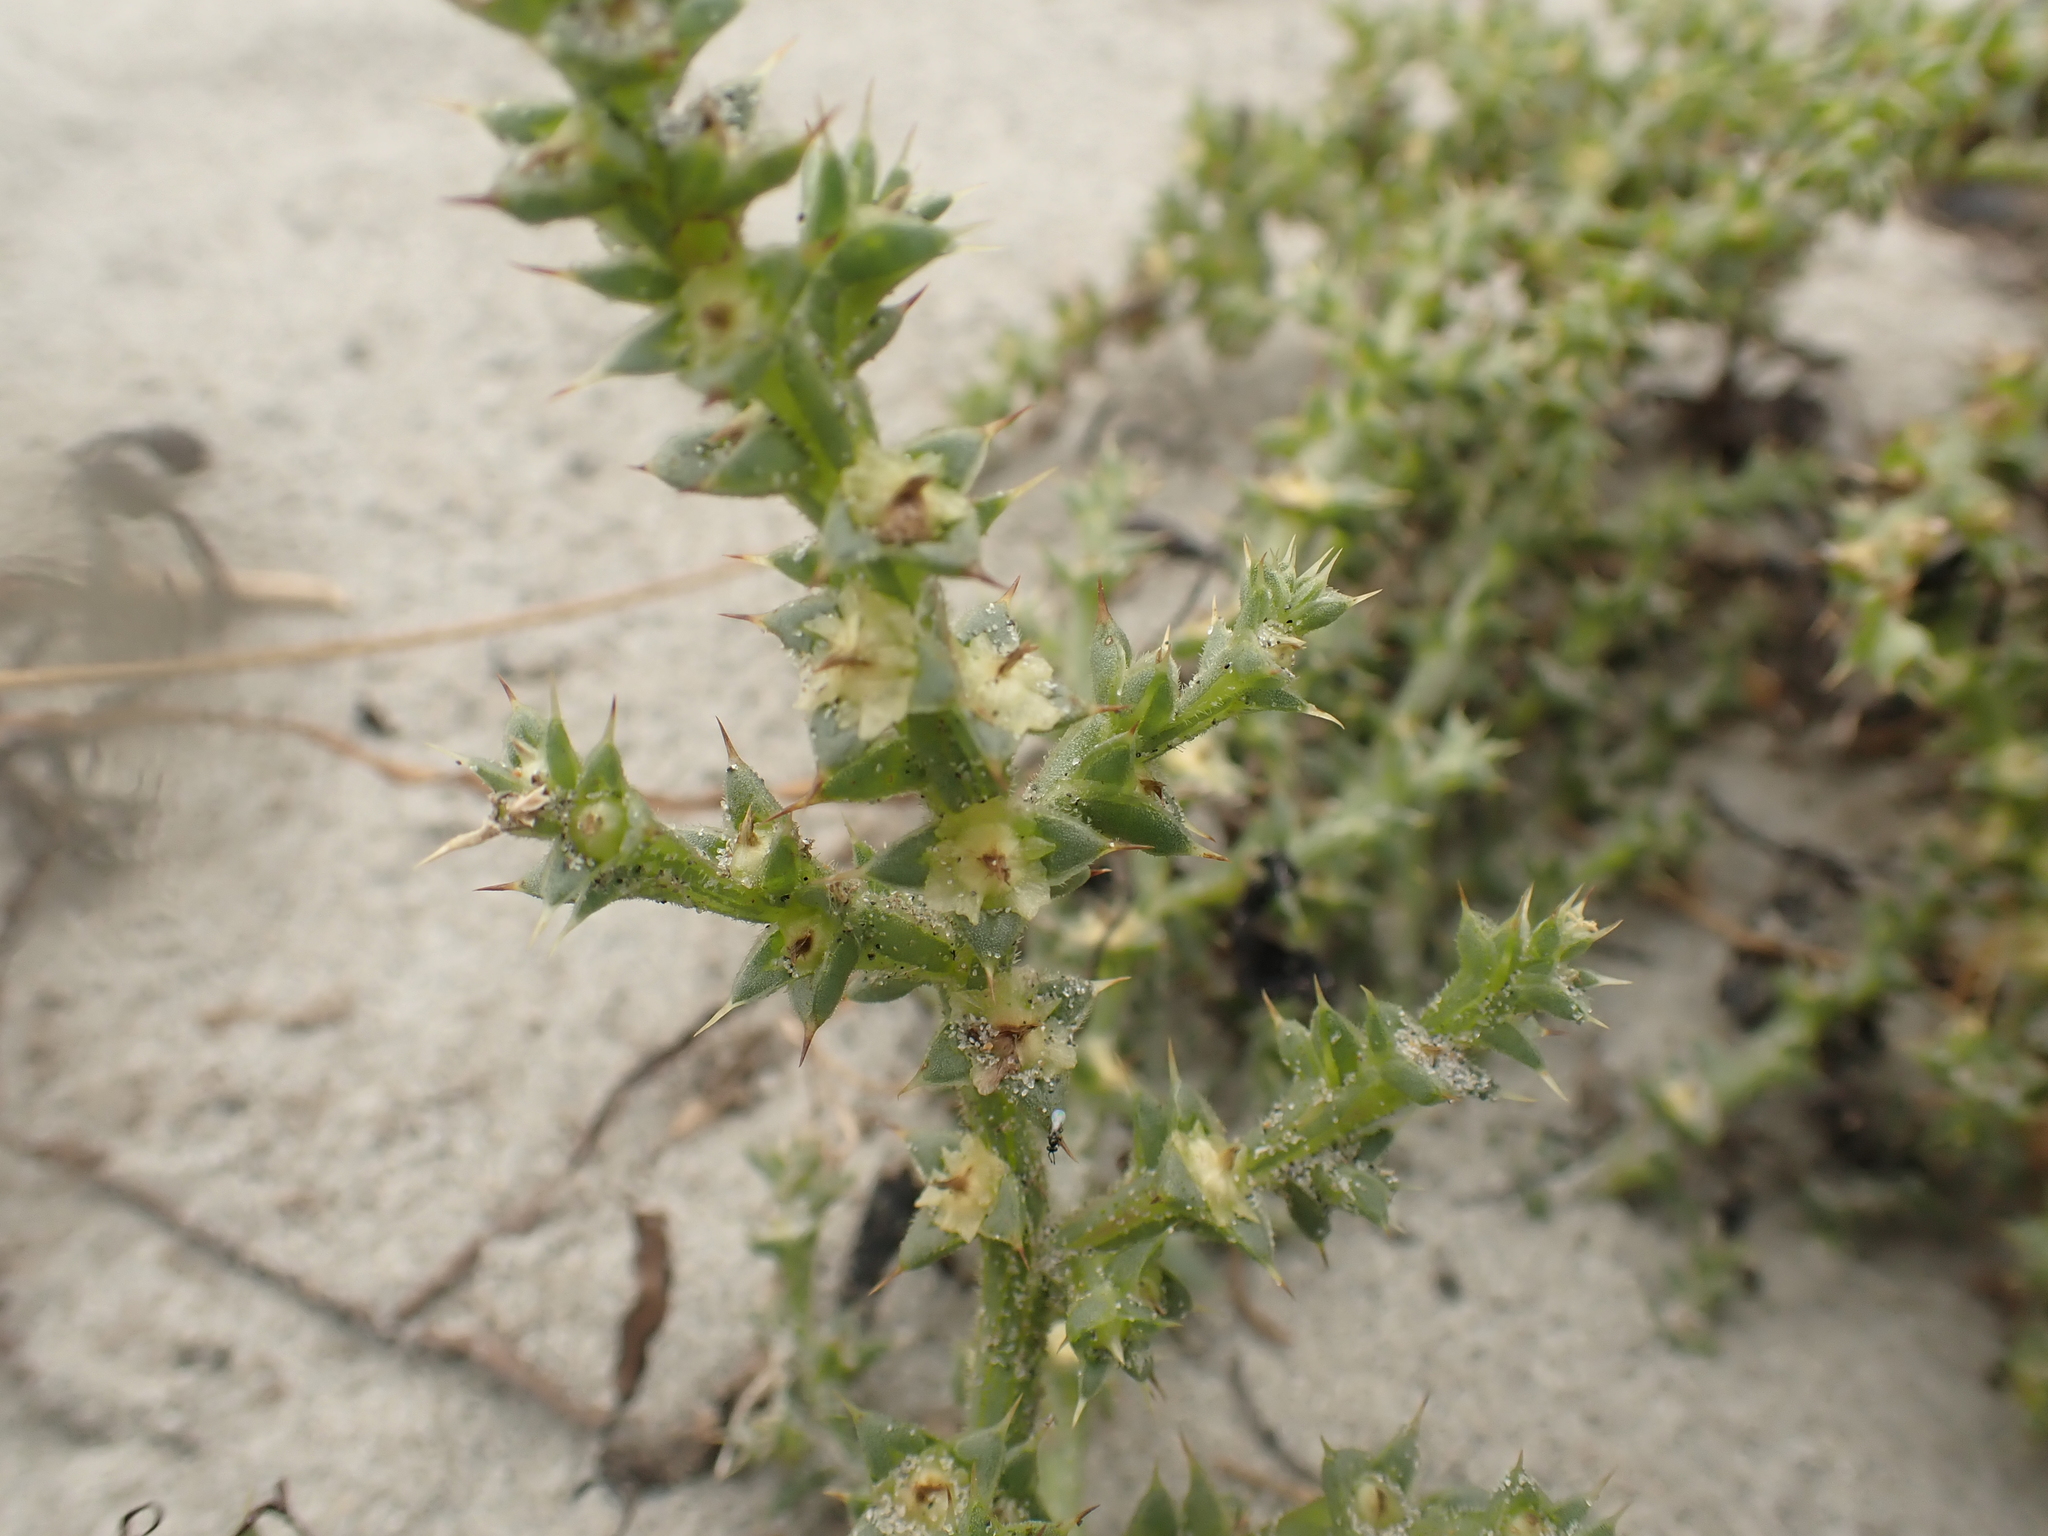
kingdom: Plantae
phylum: Tracheophyta
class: Magnoliopsida
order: Caryophyllales
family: Amaranthaceae
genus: Salsola
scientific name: Salsola kali
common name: Saltwort
